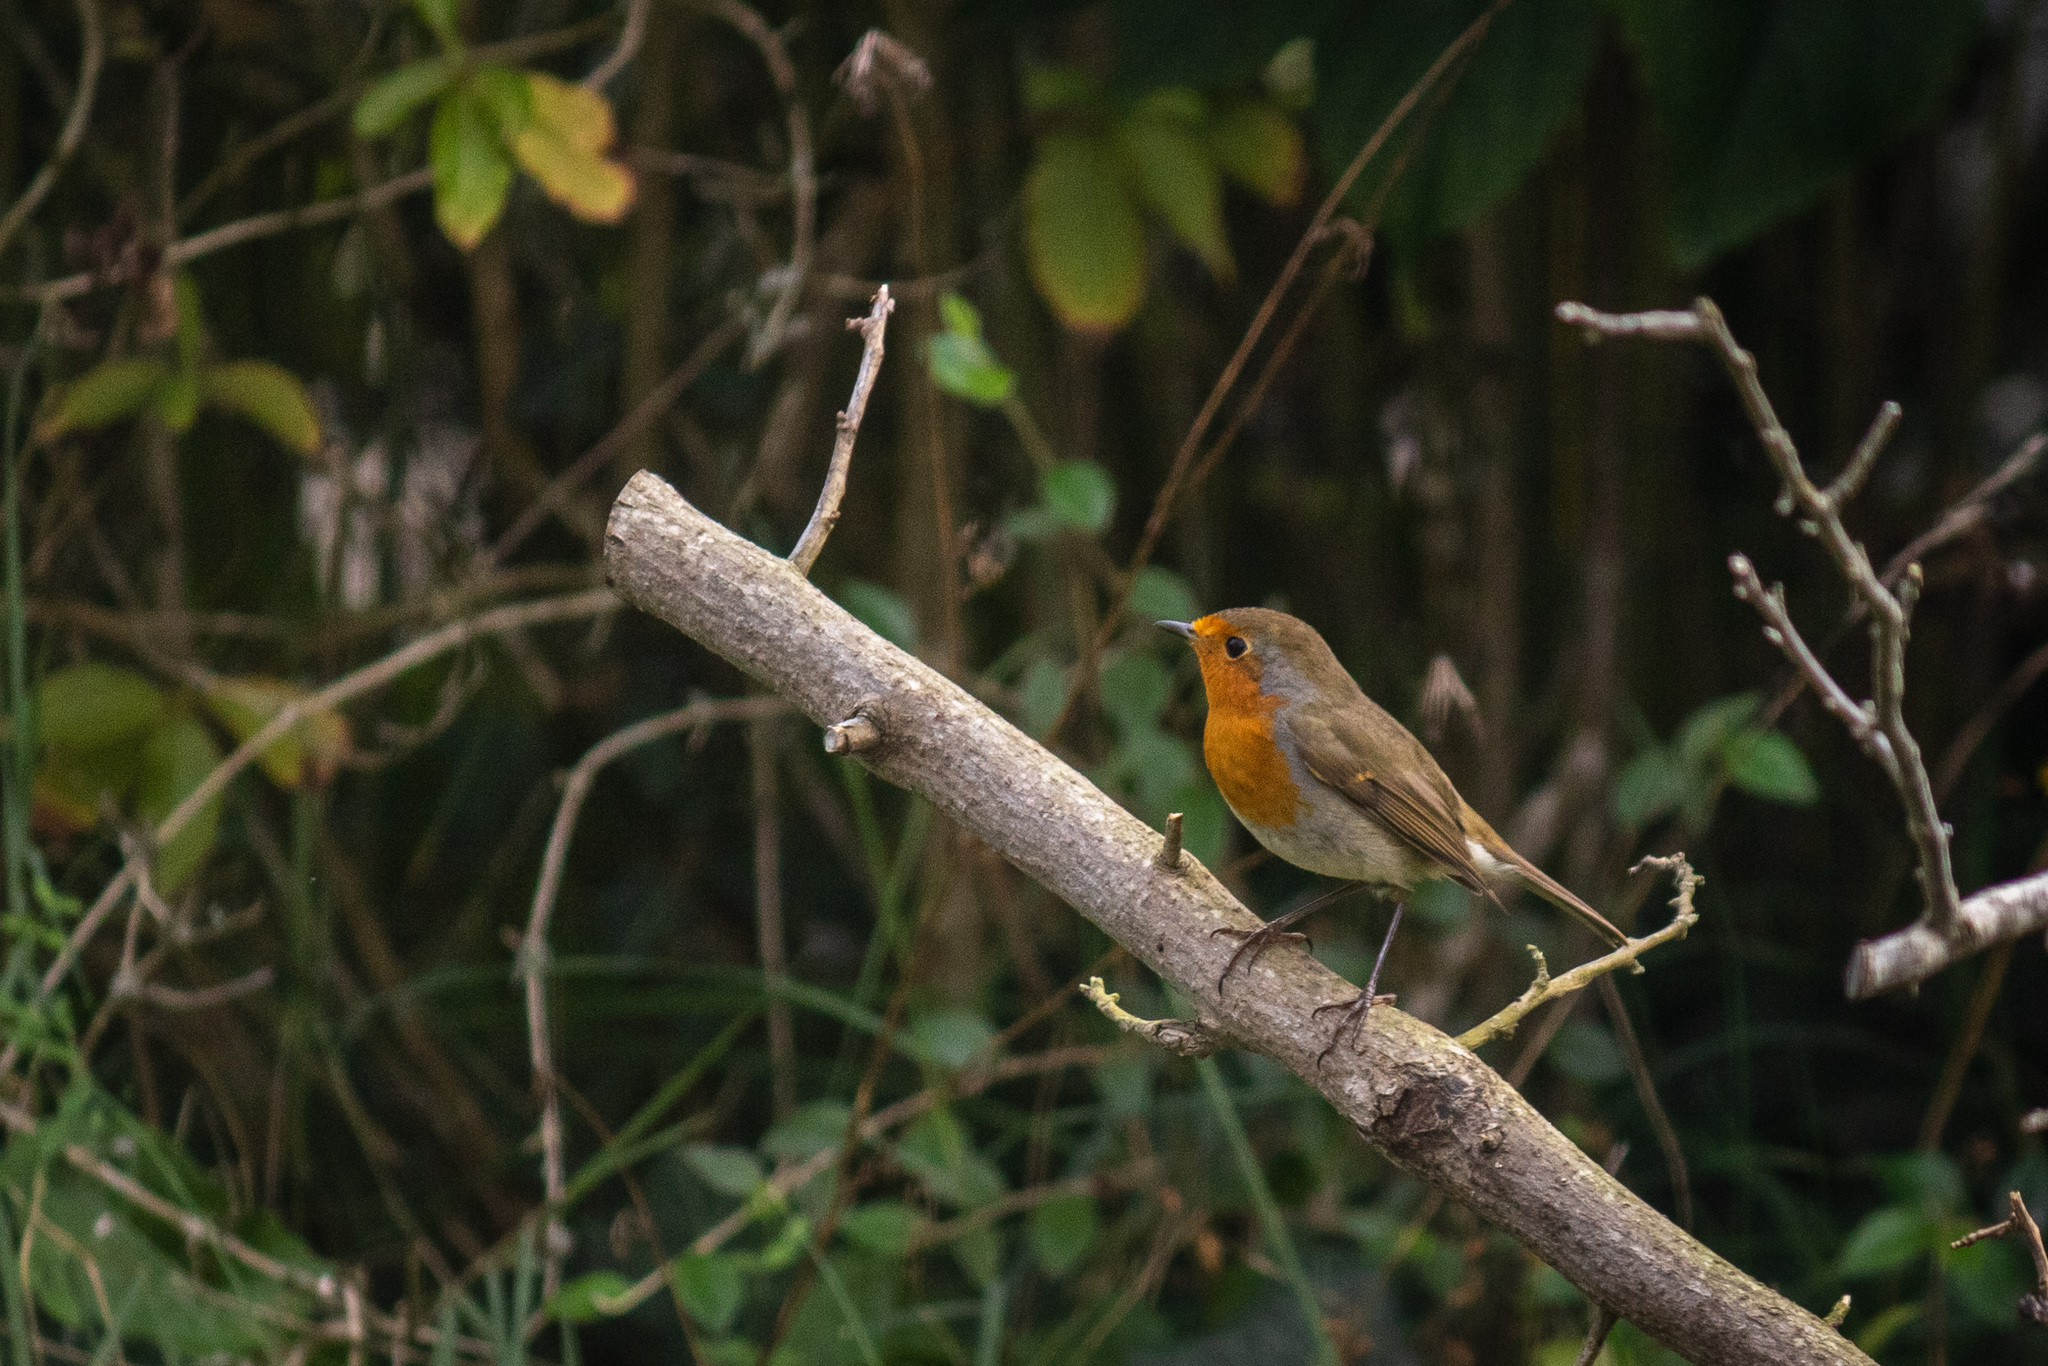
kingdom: Animalia
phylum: Chordata
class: Aves
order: Passeriformes
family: Muscicapidae
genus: Erithacus
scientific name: Erithacus rubecula
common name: European robin
